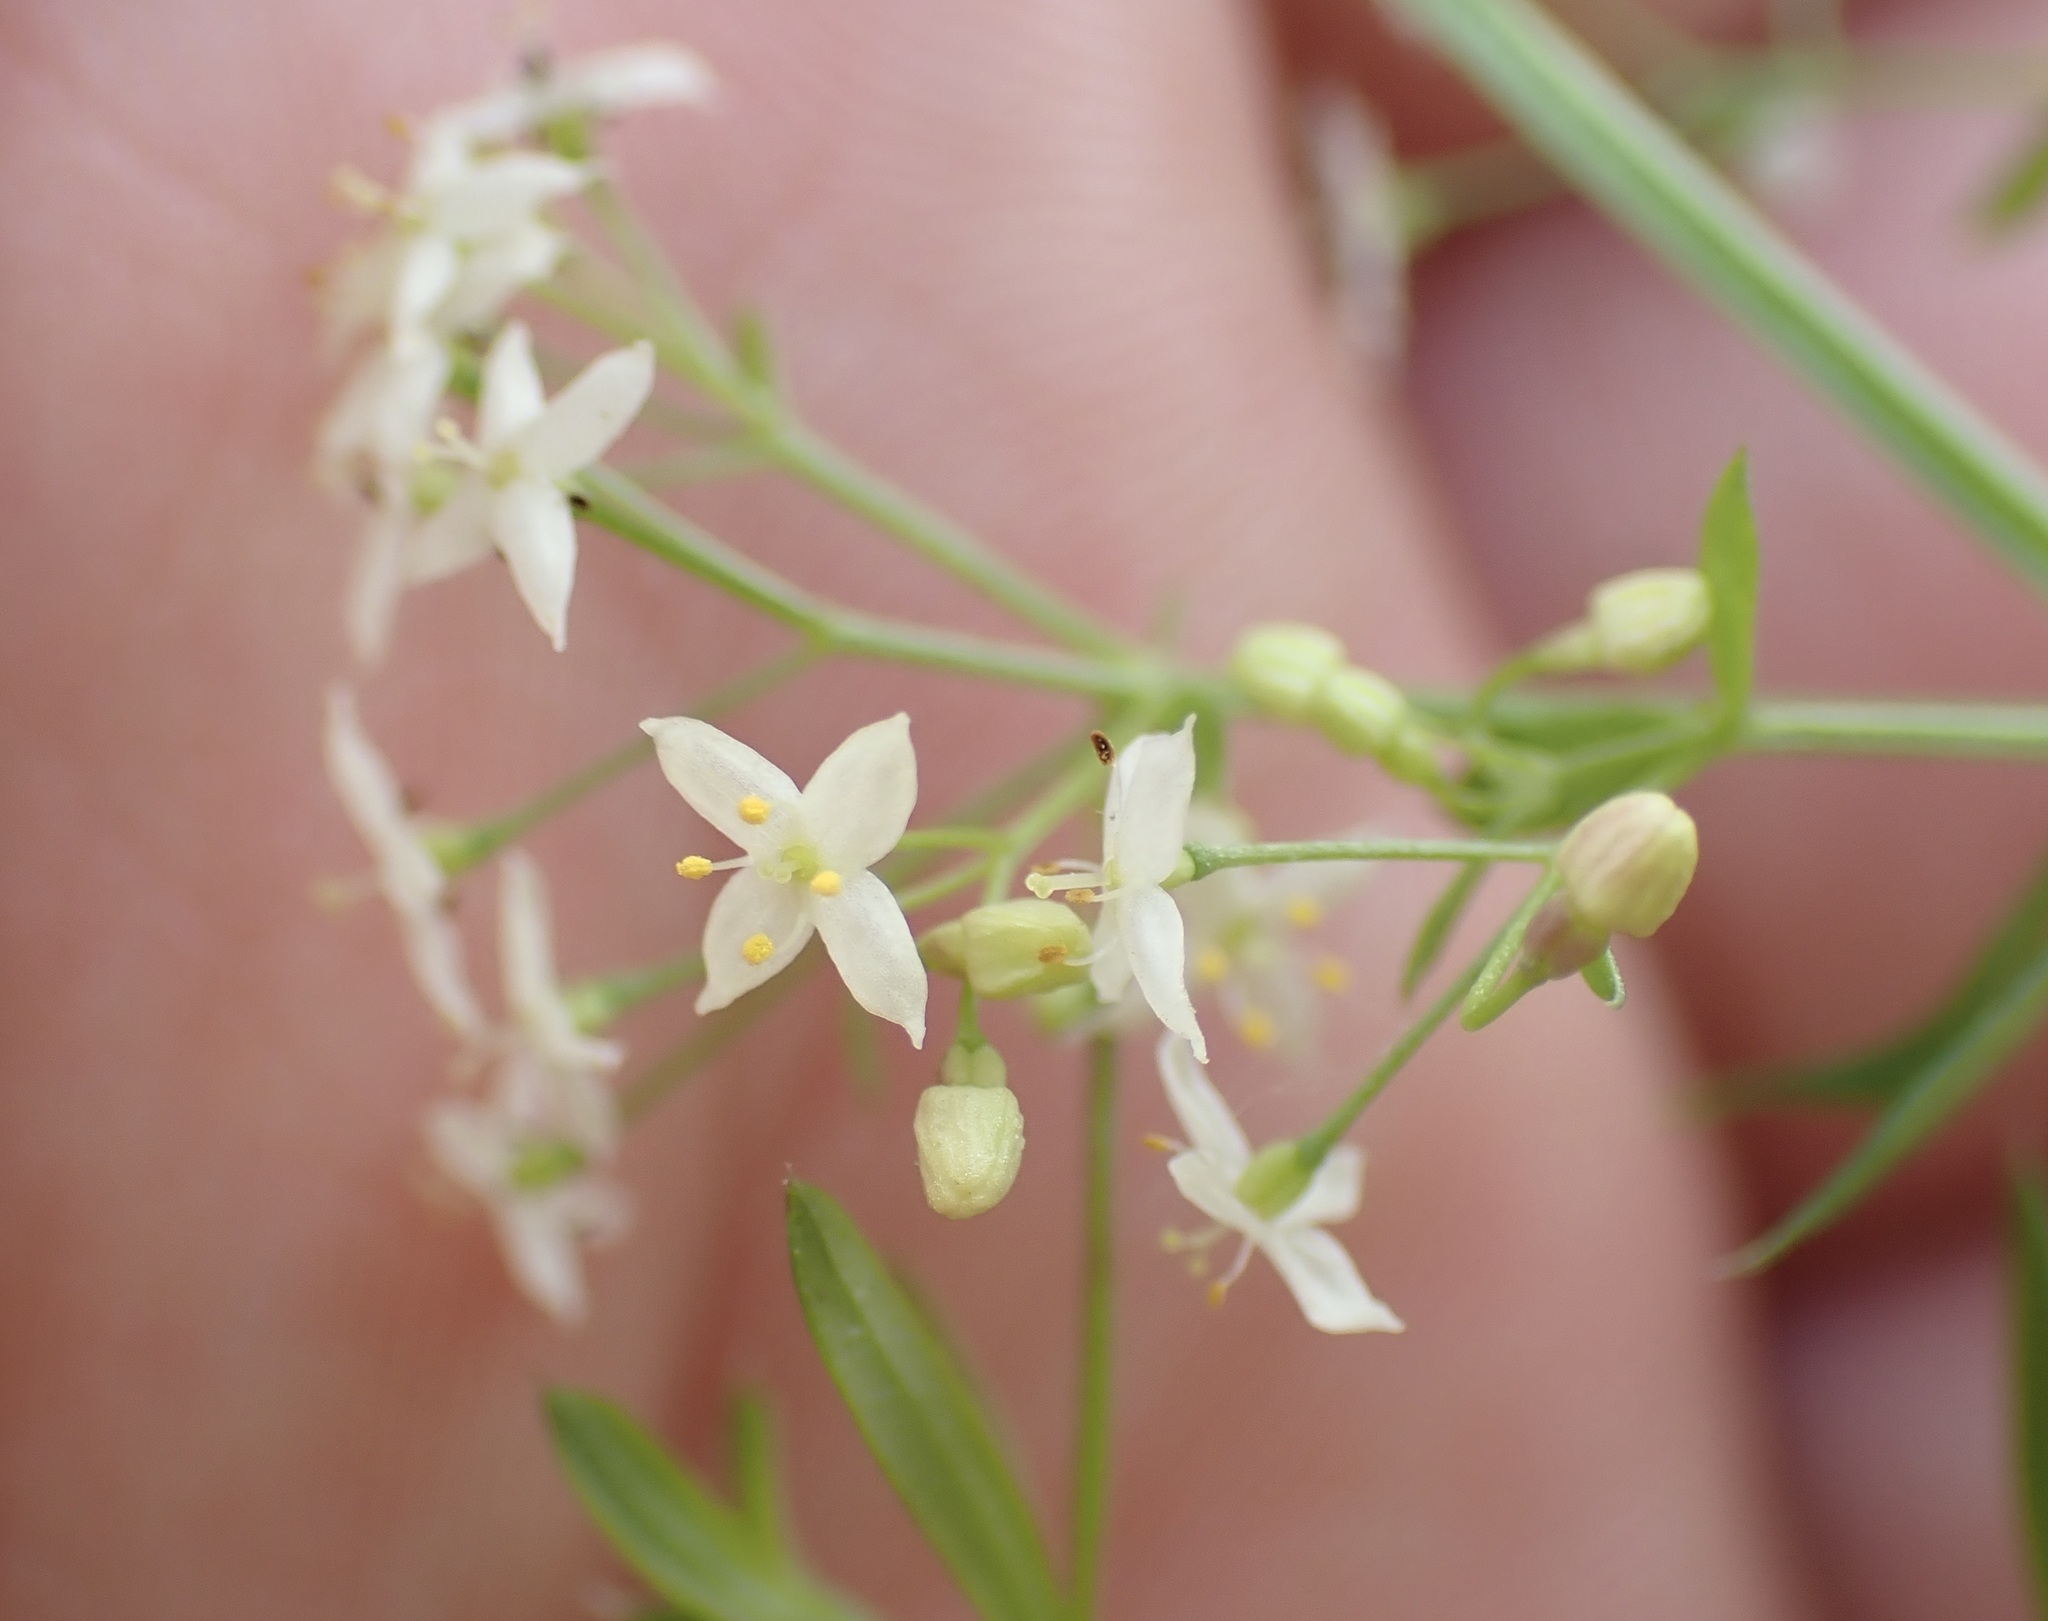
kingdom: Plantae
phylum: Tracheophyta
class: Magnoliopsida
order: Gentianales
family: Rubiaceae
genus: Galium
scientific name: Galium album
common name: White bedstraw
